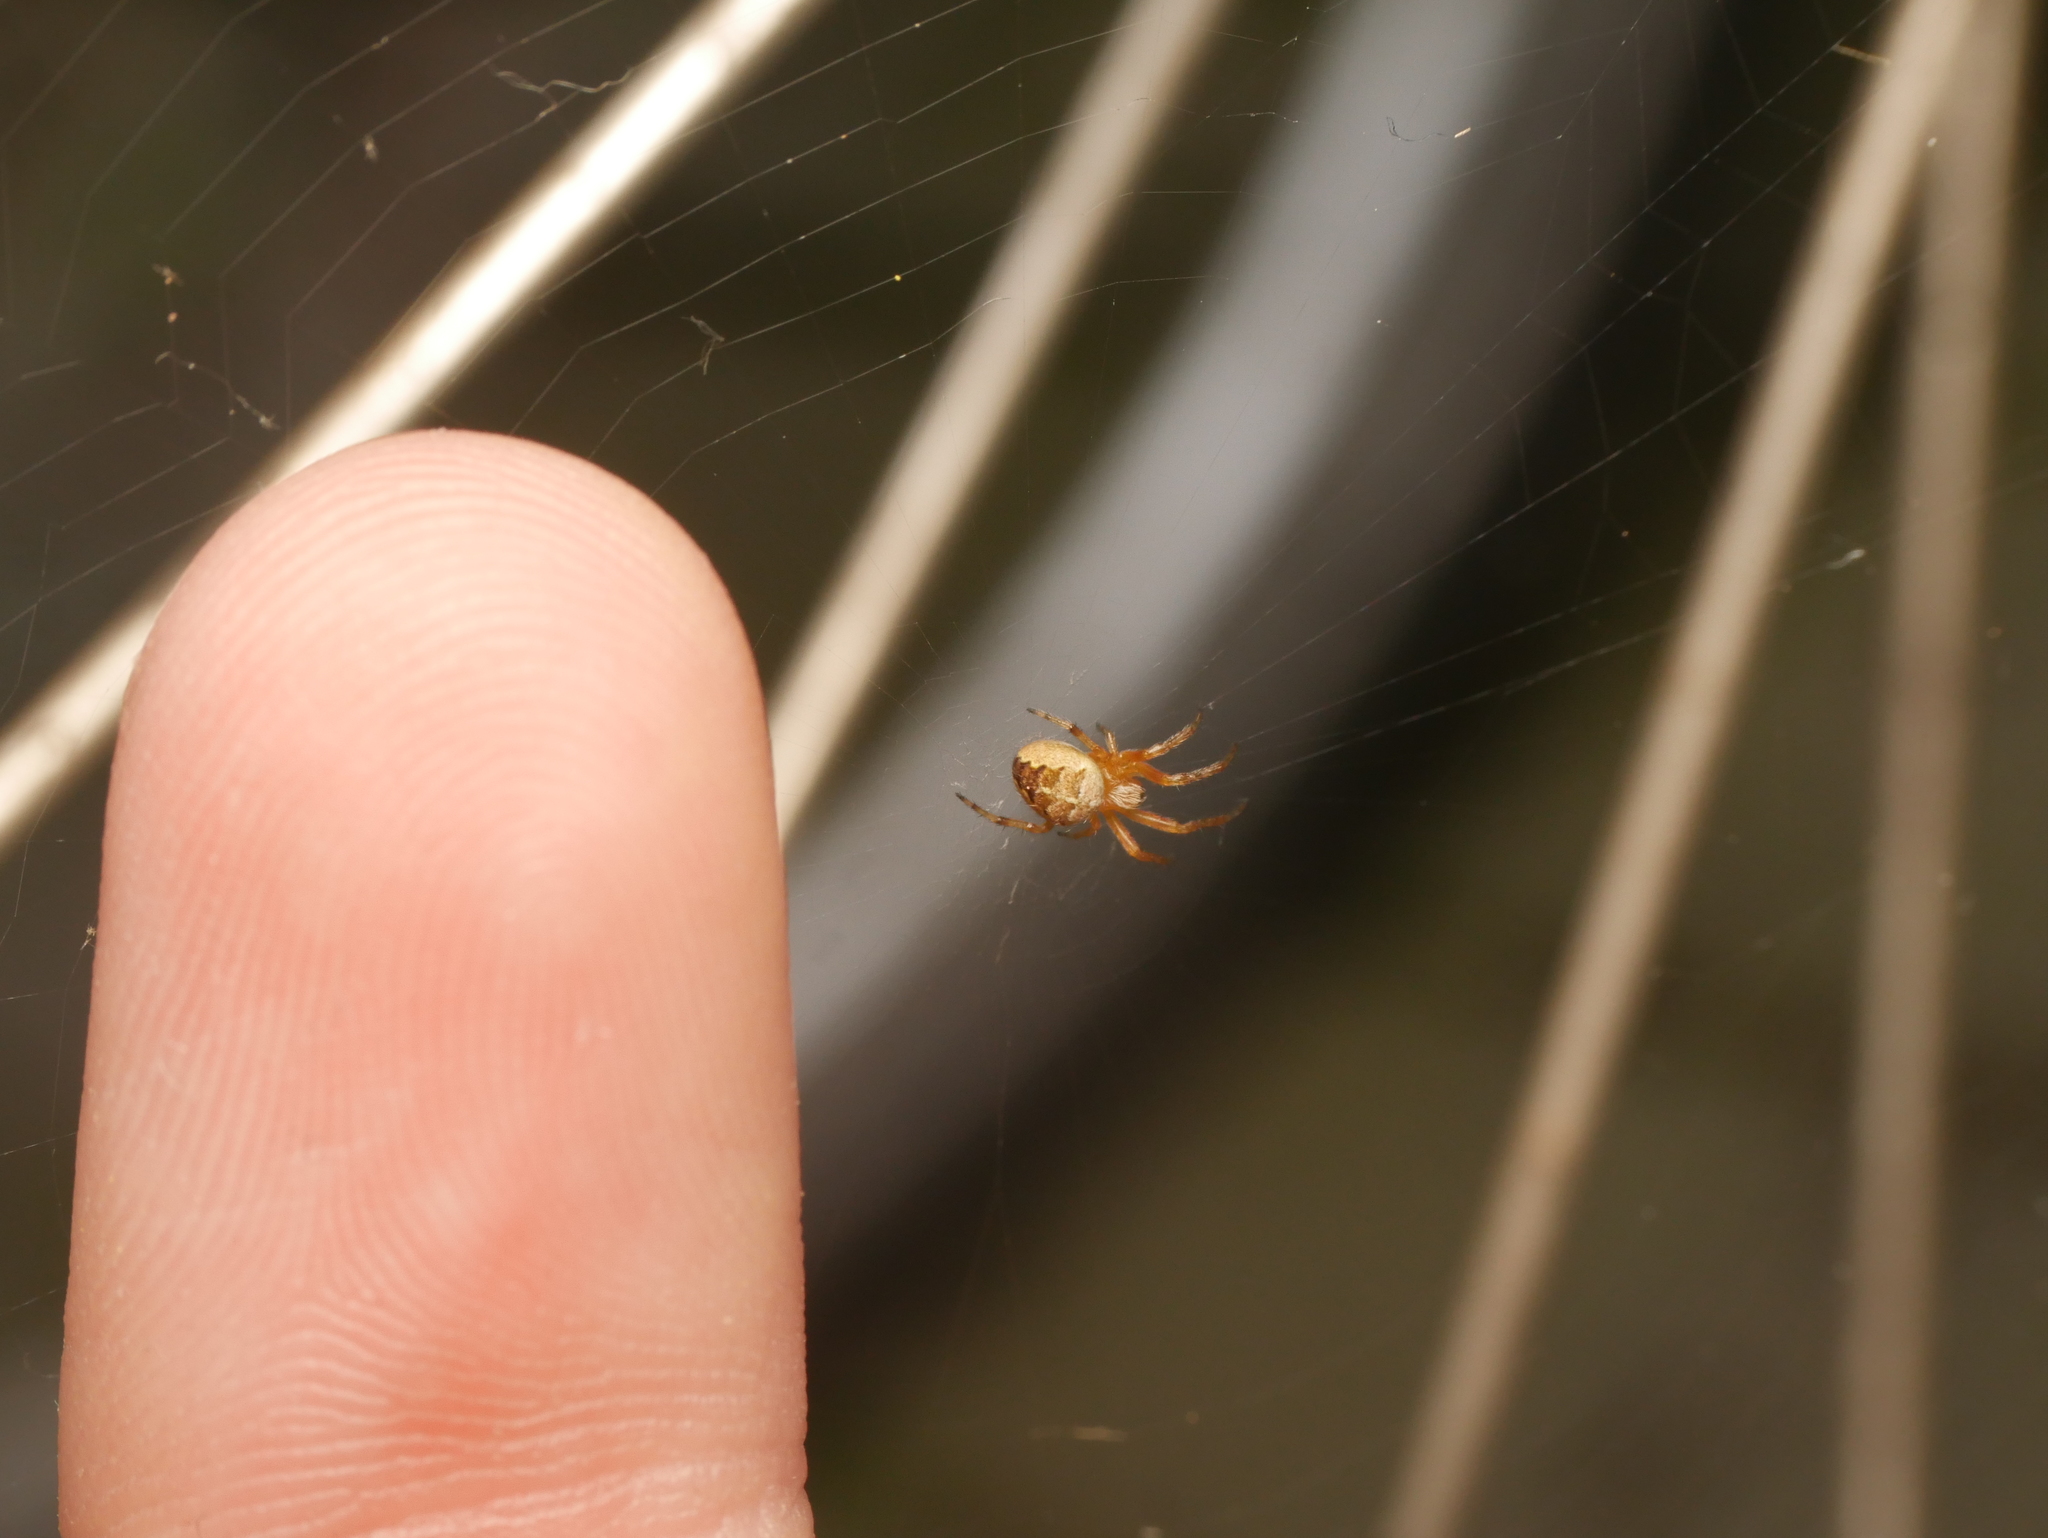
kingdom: Animalia
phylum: Arthropoda
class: Arachnida
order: Araneae
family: Araneidae
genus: Araneus
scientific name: Araneus diadematus
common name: Cross orbweaver
